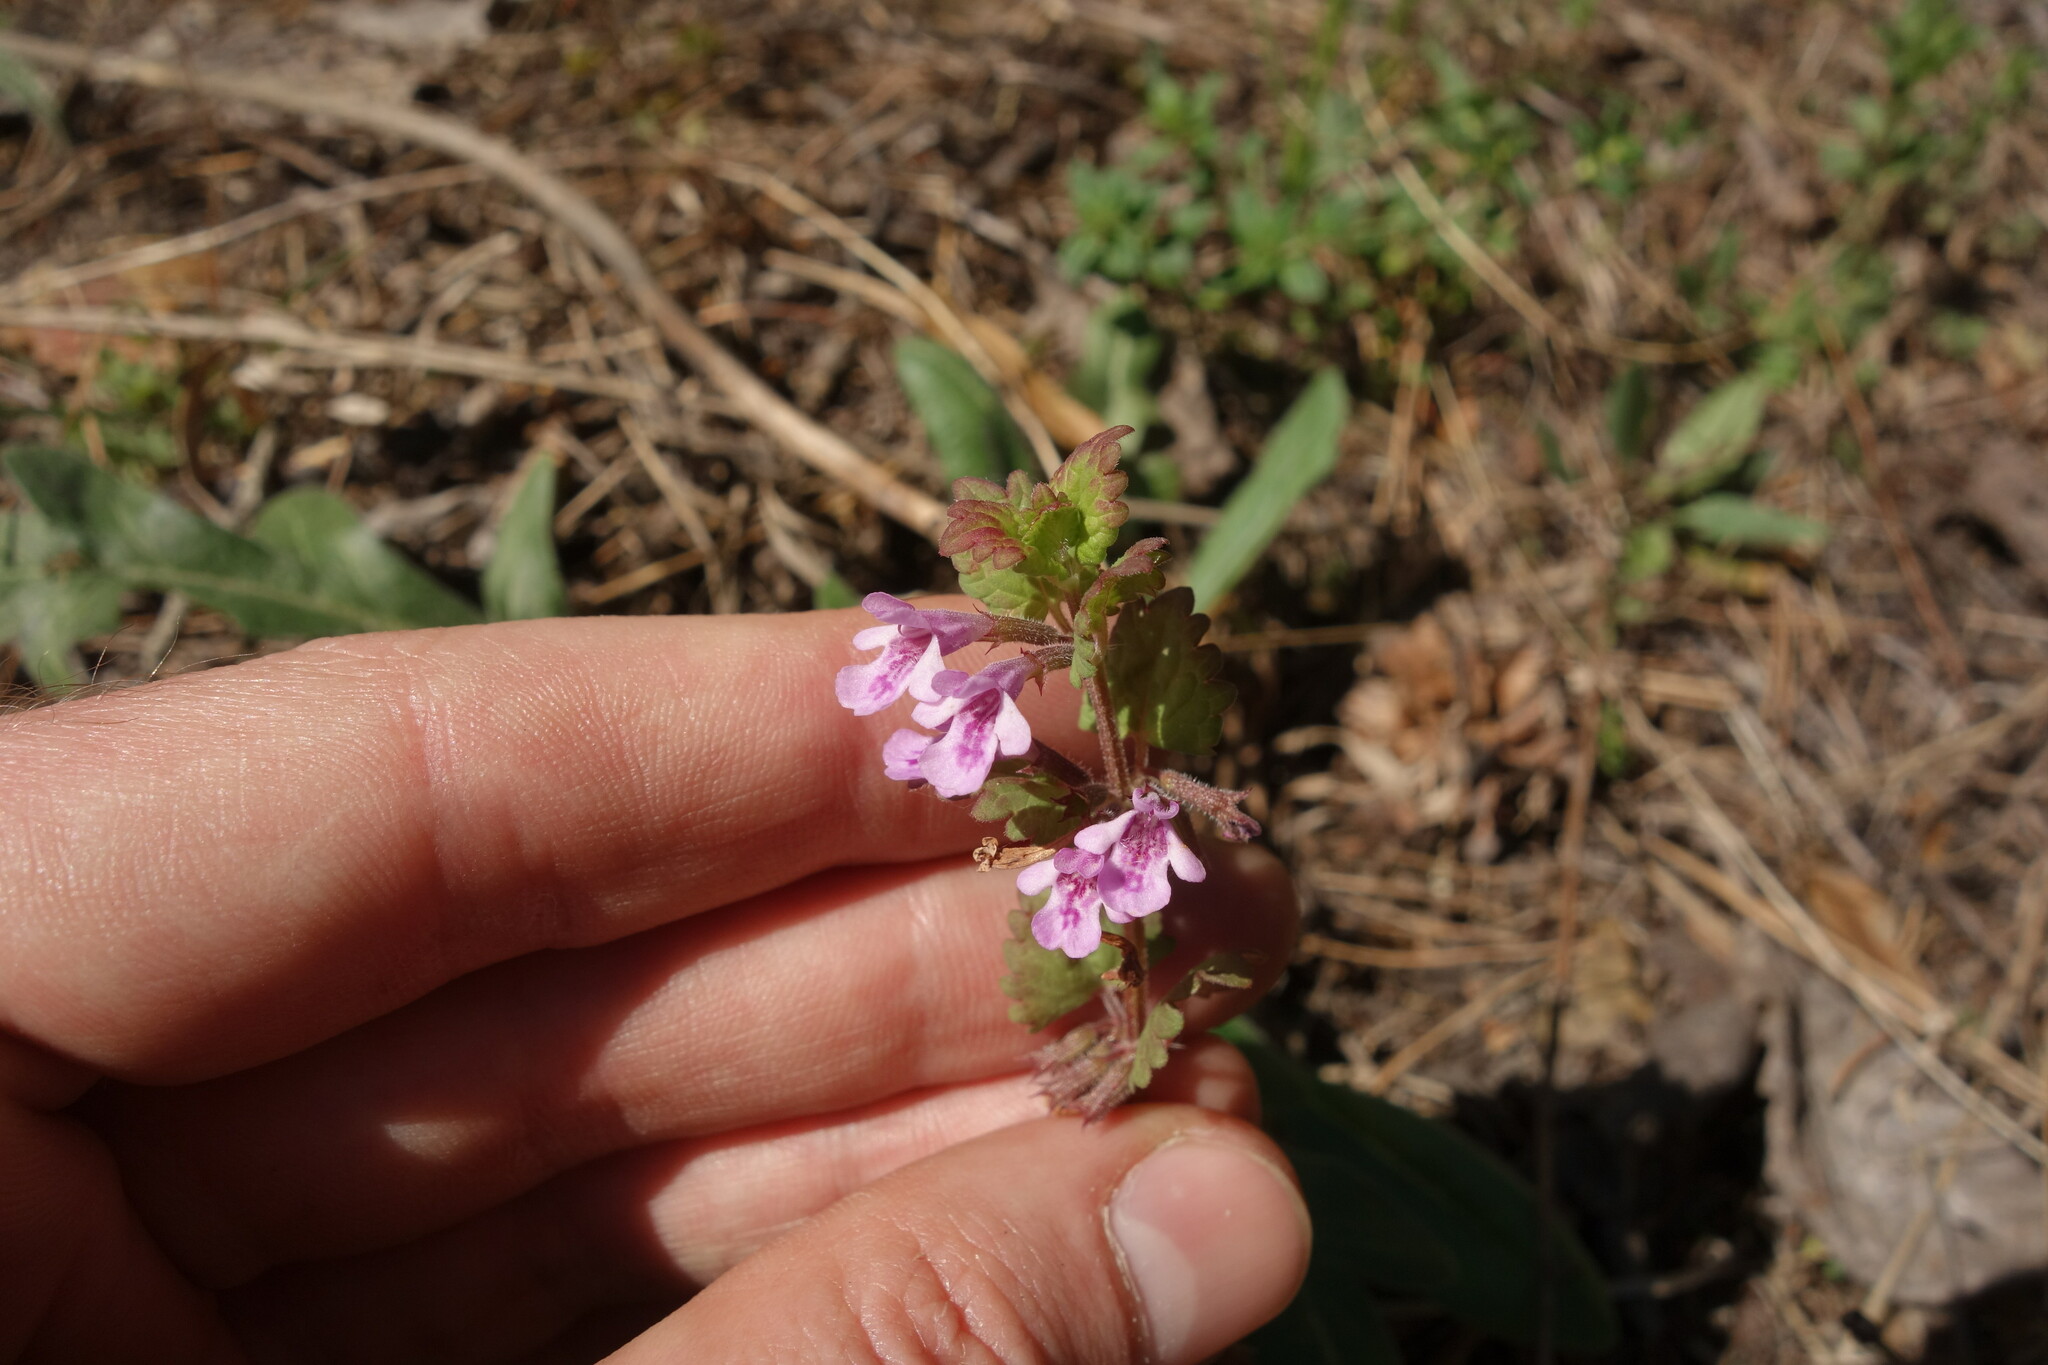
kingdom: Plantae
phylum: Tracheophyta
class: Magnoliopsida
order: Lamiales
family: Lamiaceae
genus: Glechoma
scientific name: Glechoma hederacea
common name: Ground ivy
